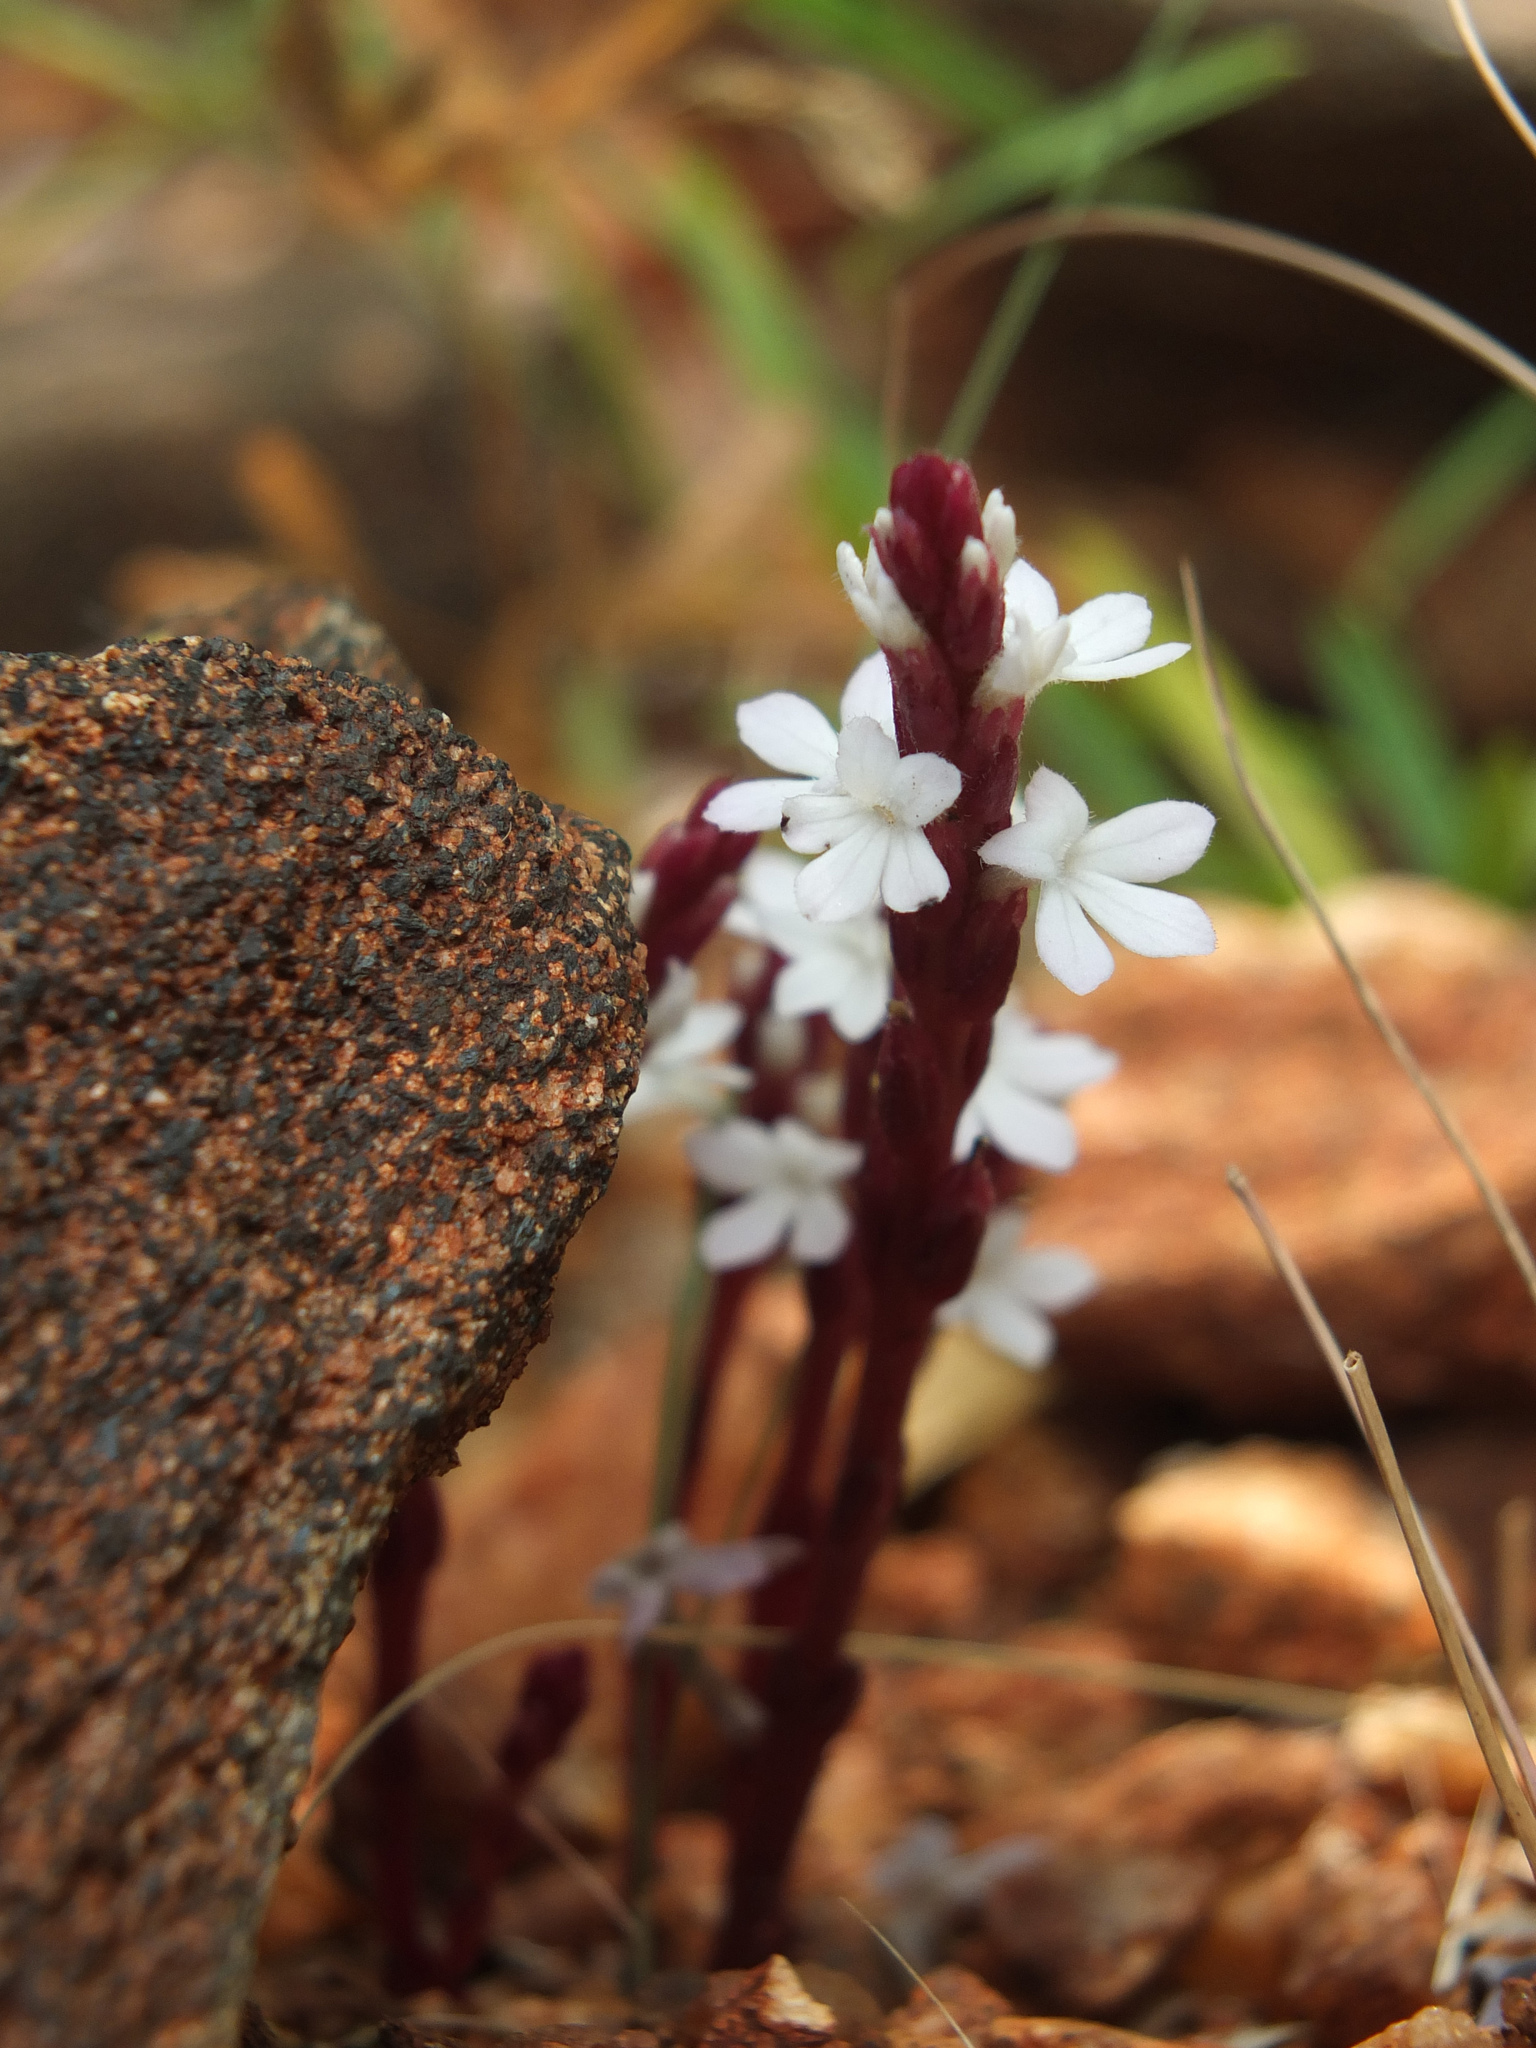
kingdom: Plantae
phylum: Tracheophyta
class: Magnoliopsida
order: Lamiales
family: Orobanchaceae
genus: Striga
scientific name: Striga gesnerioides
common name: Cowpea witchweed
